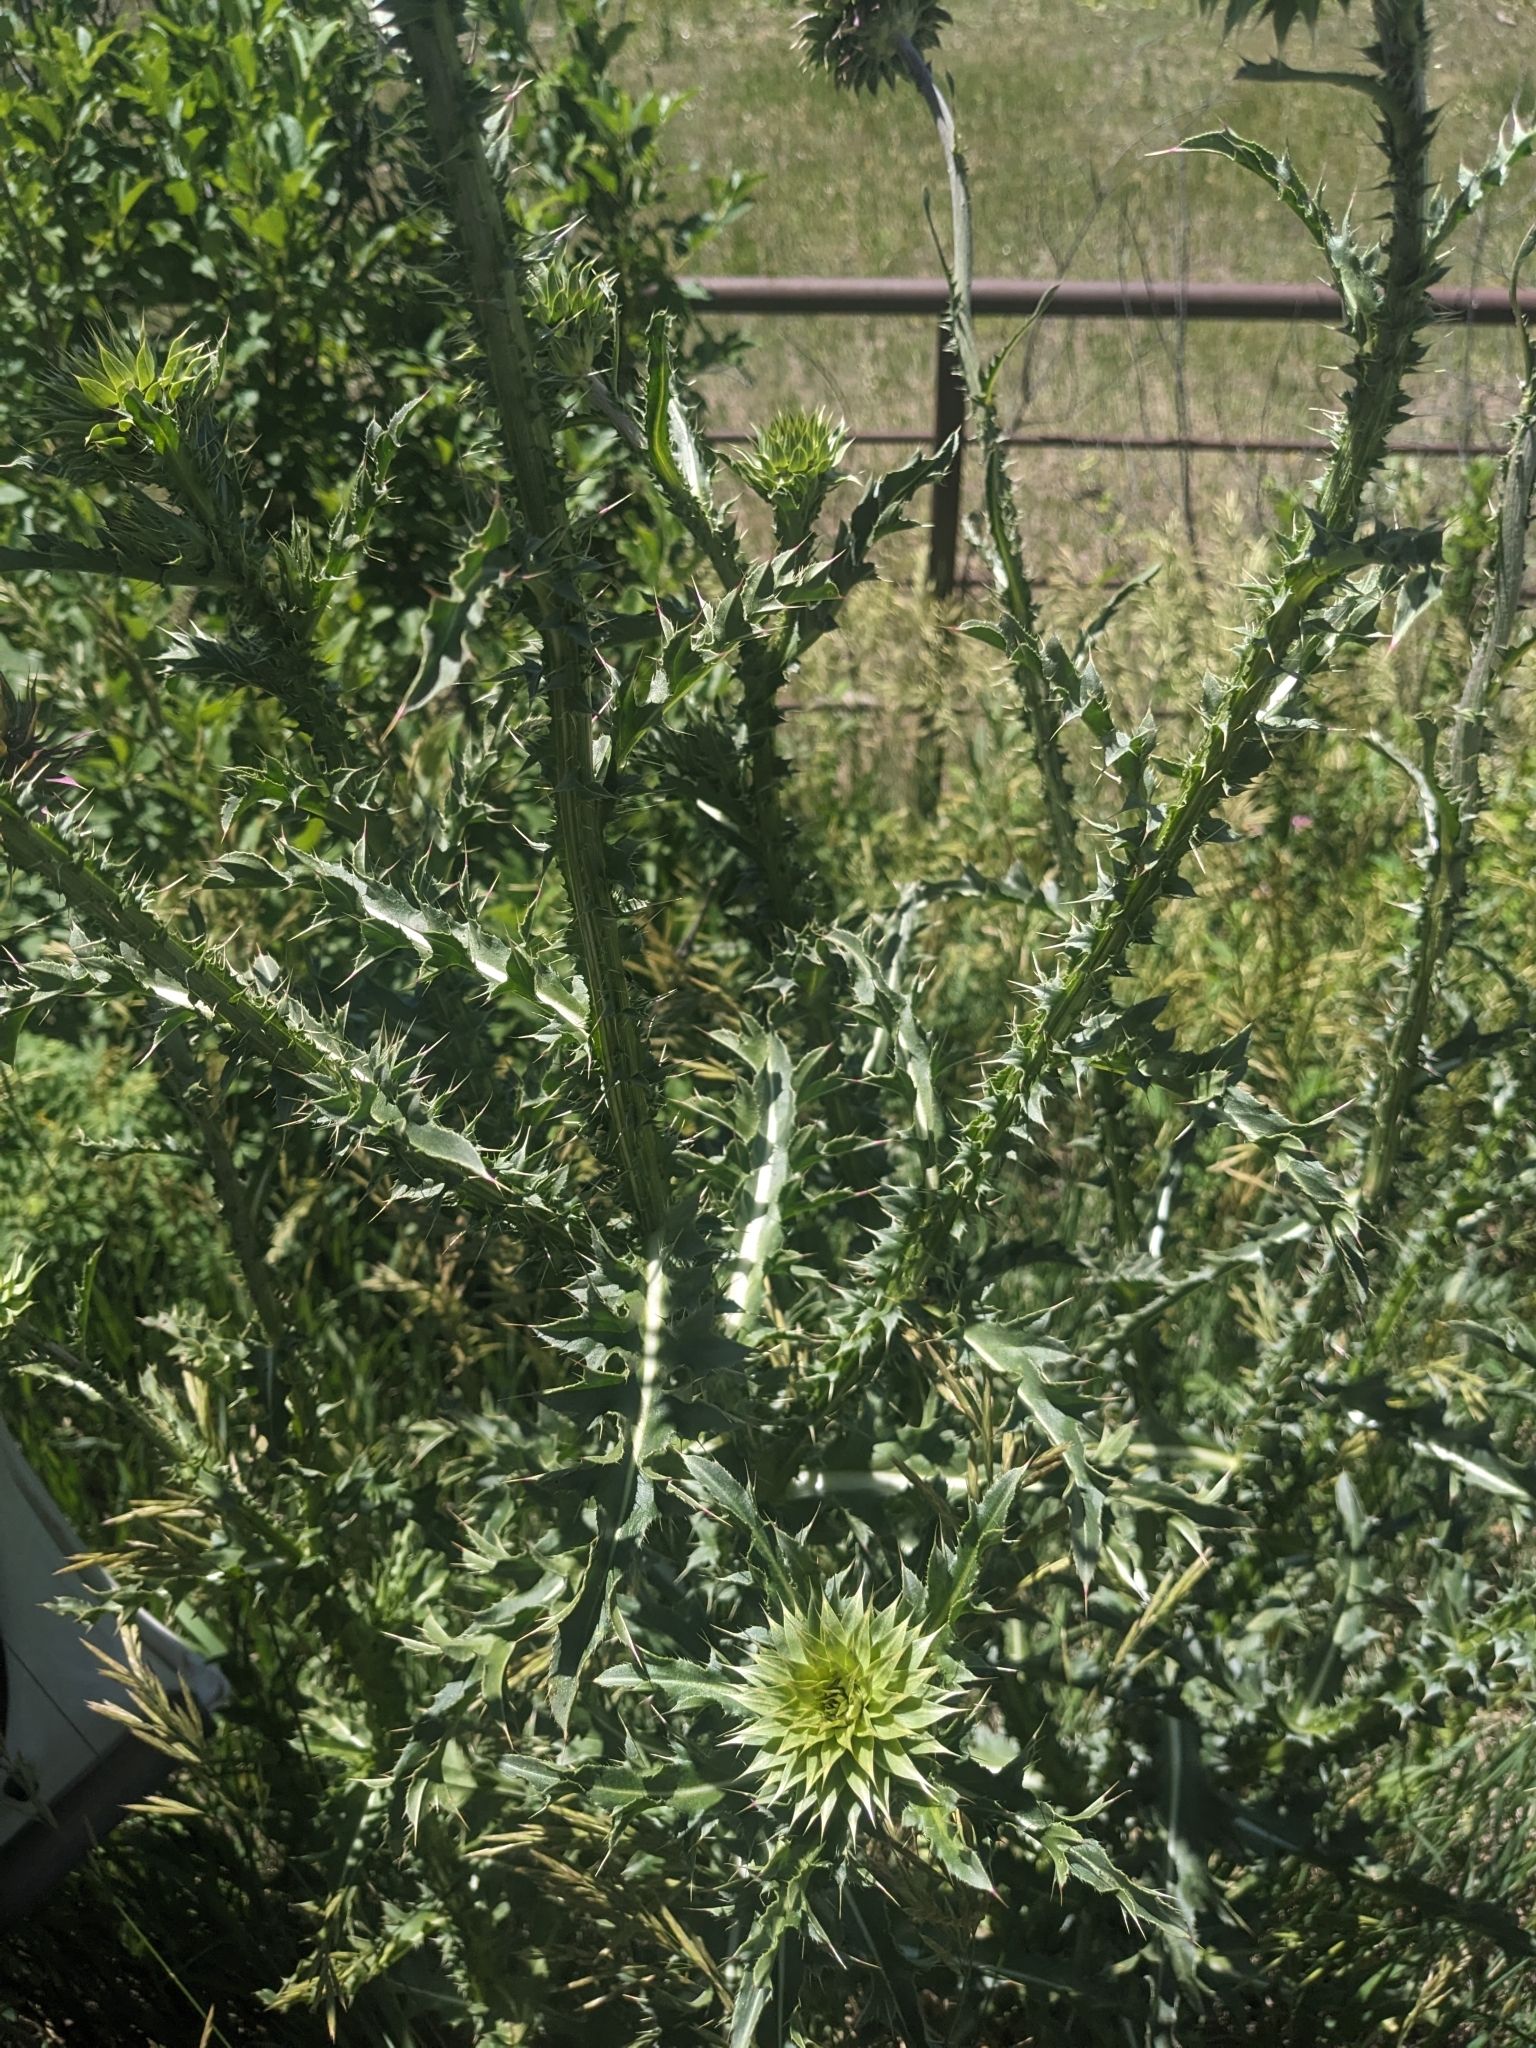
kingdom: Plantae
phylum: Tracheophyta
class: Magnoliopsida
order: Asterales
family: Asteraceae
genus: Carduus
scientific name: Carduus nutans
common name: Musk thistle
